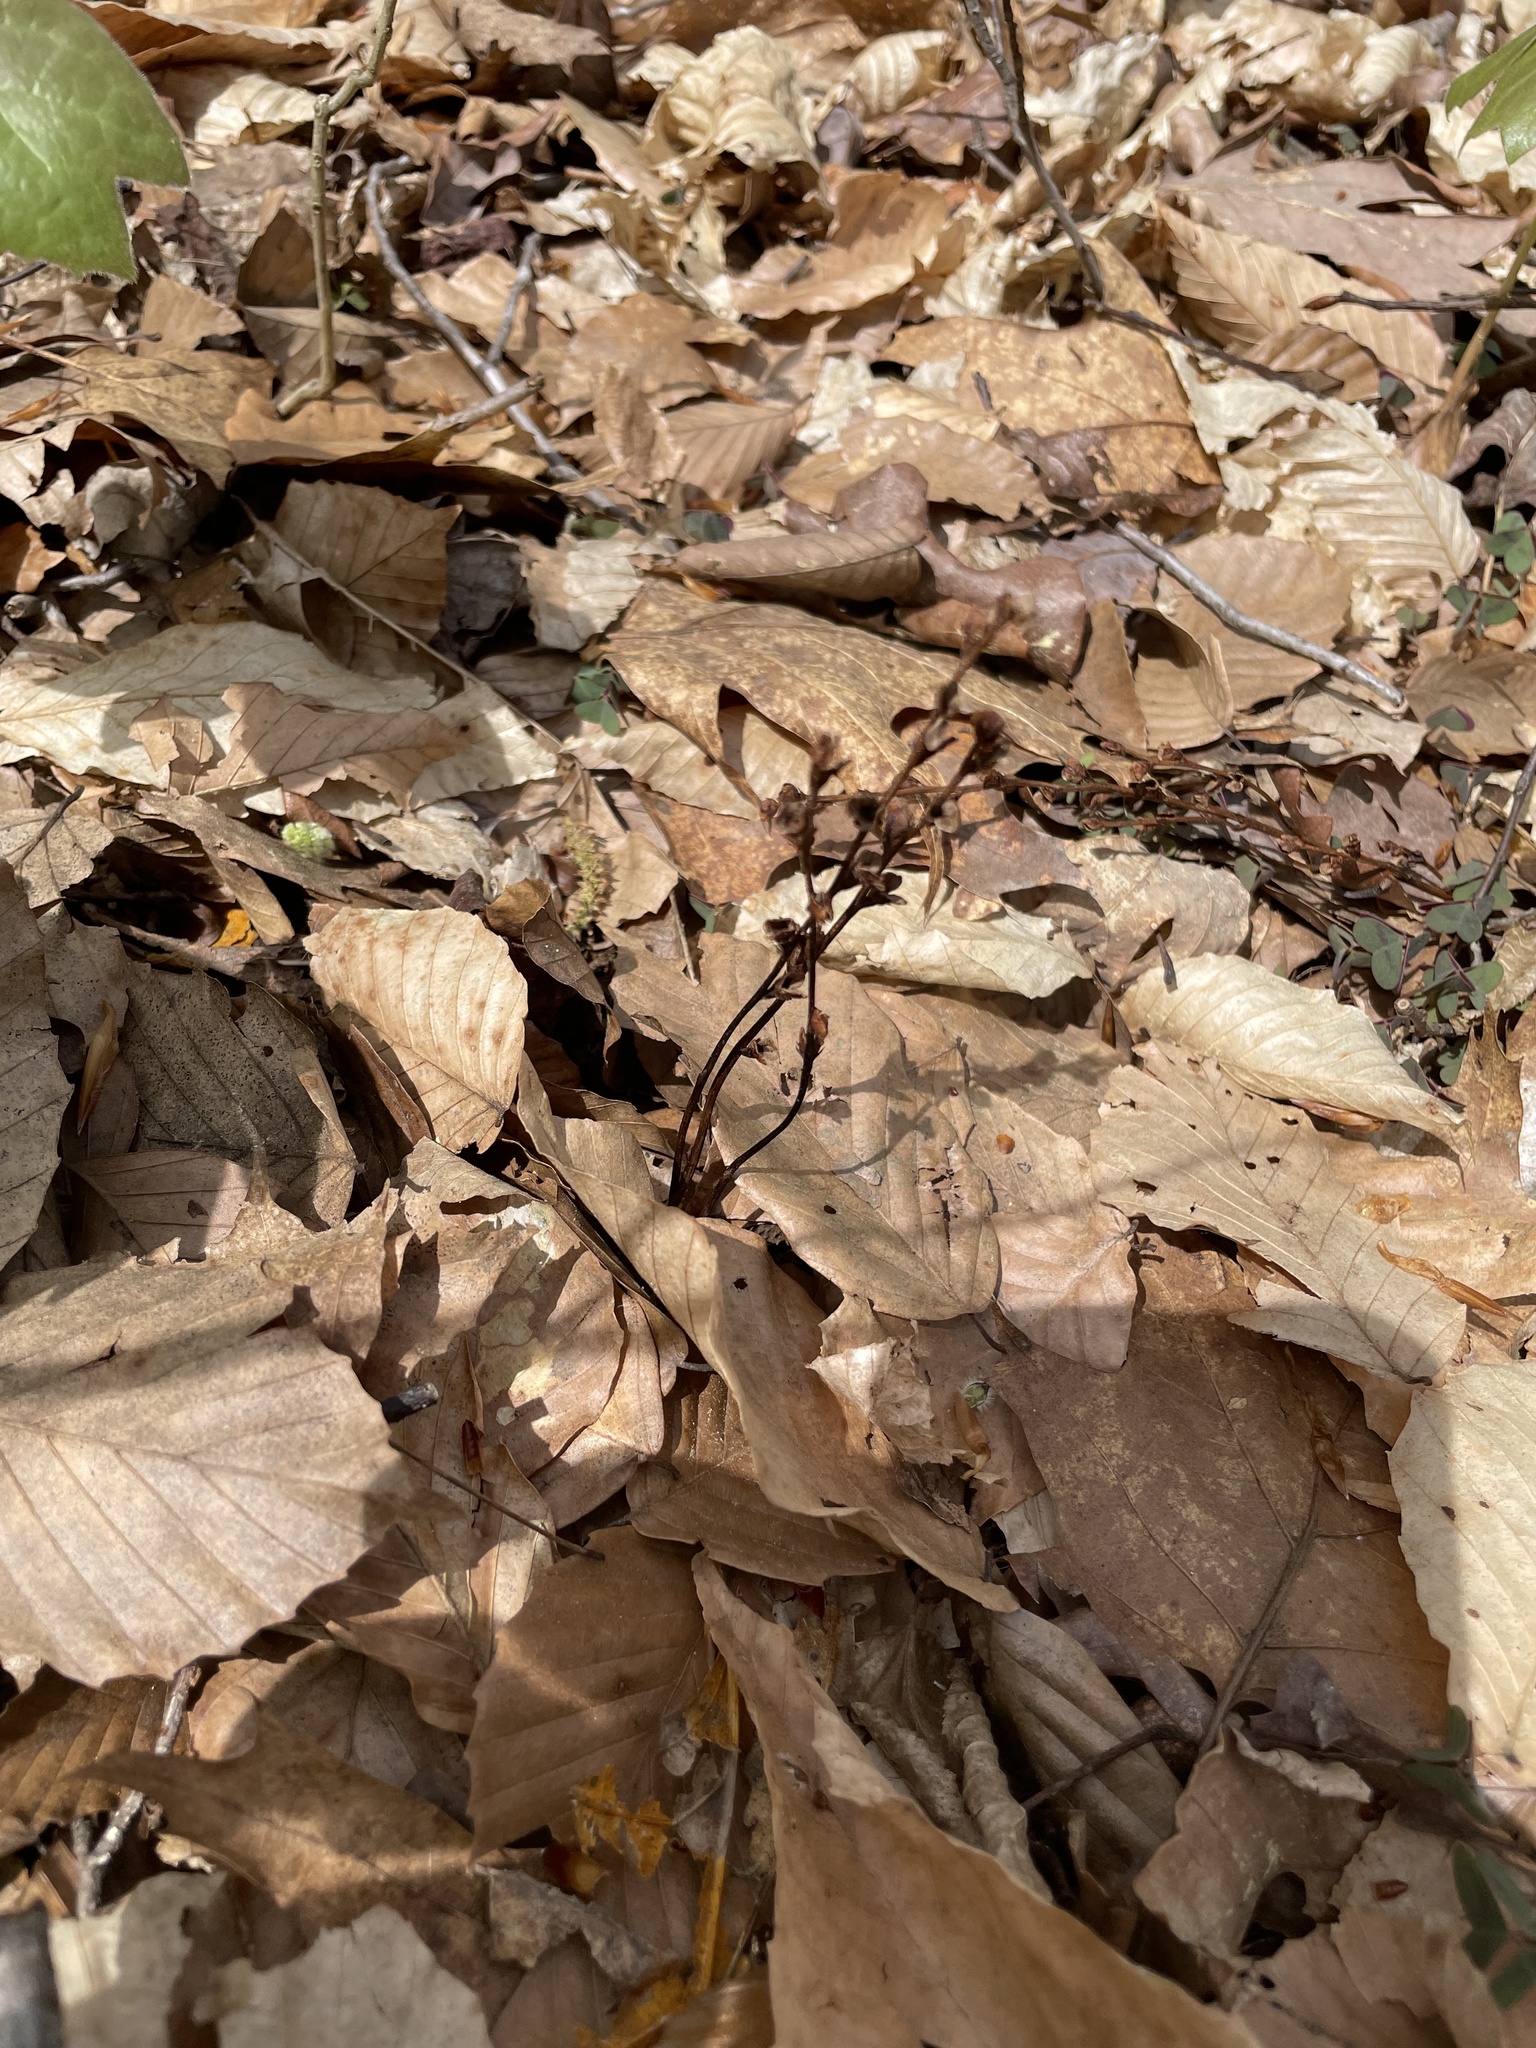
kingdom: Plantae
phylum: Tracheophyta
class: Magnoliopsida
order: Lamiales
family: Orobanchaceae
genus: Epifagus
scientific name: Epifagus virginiana
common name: Beechdrops
